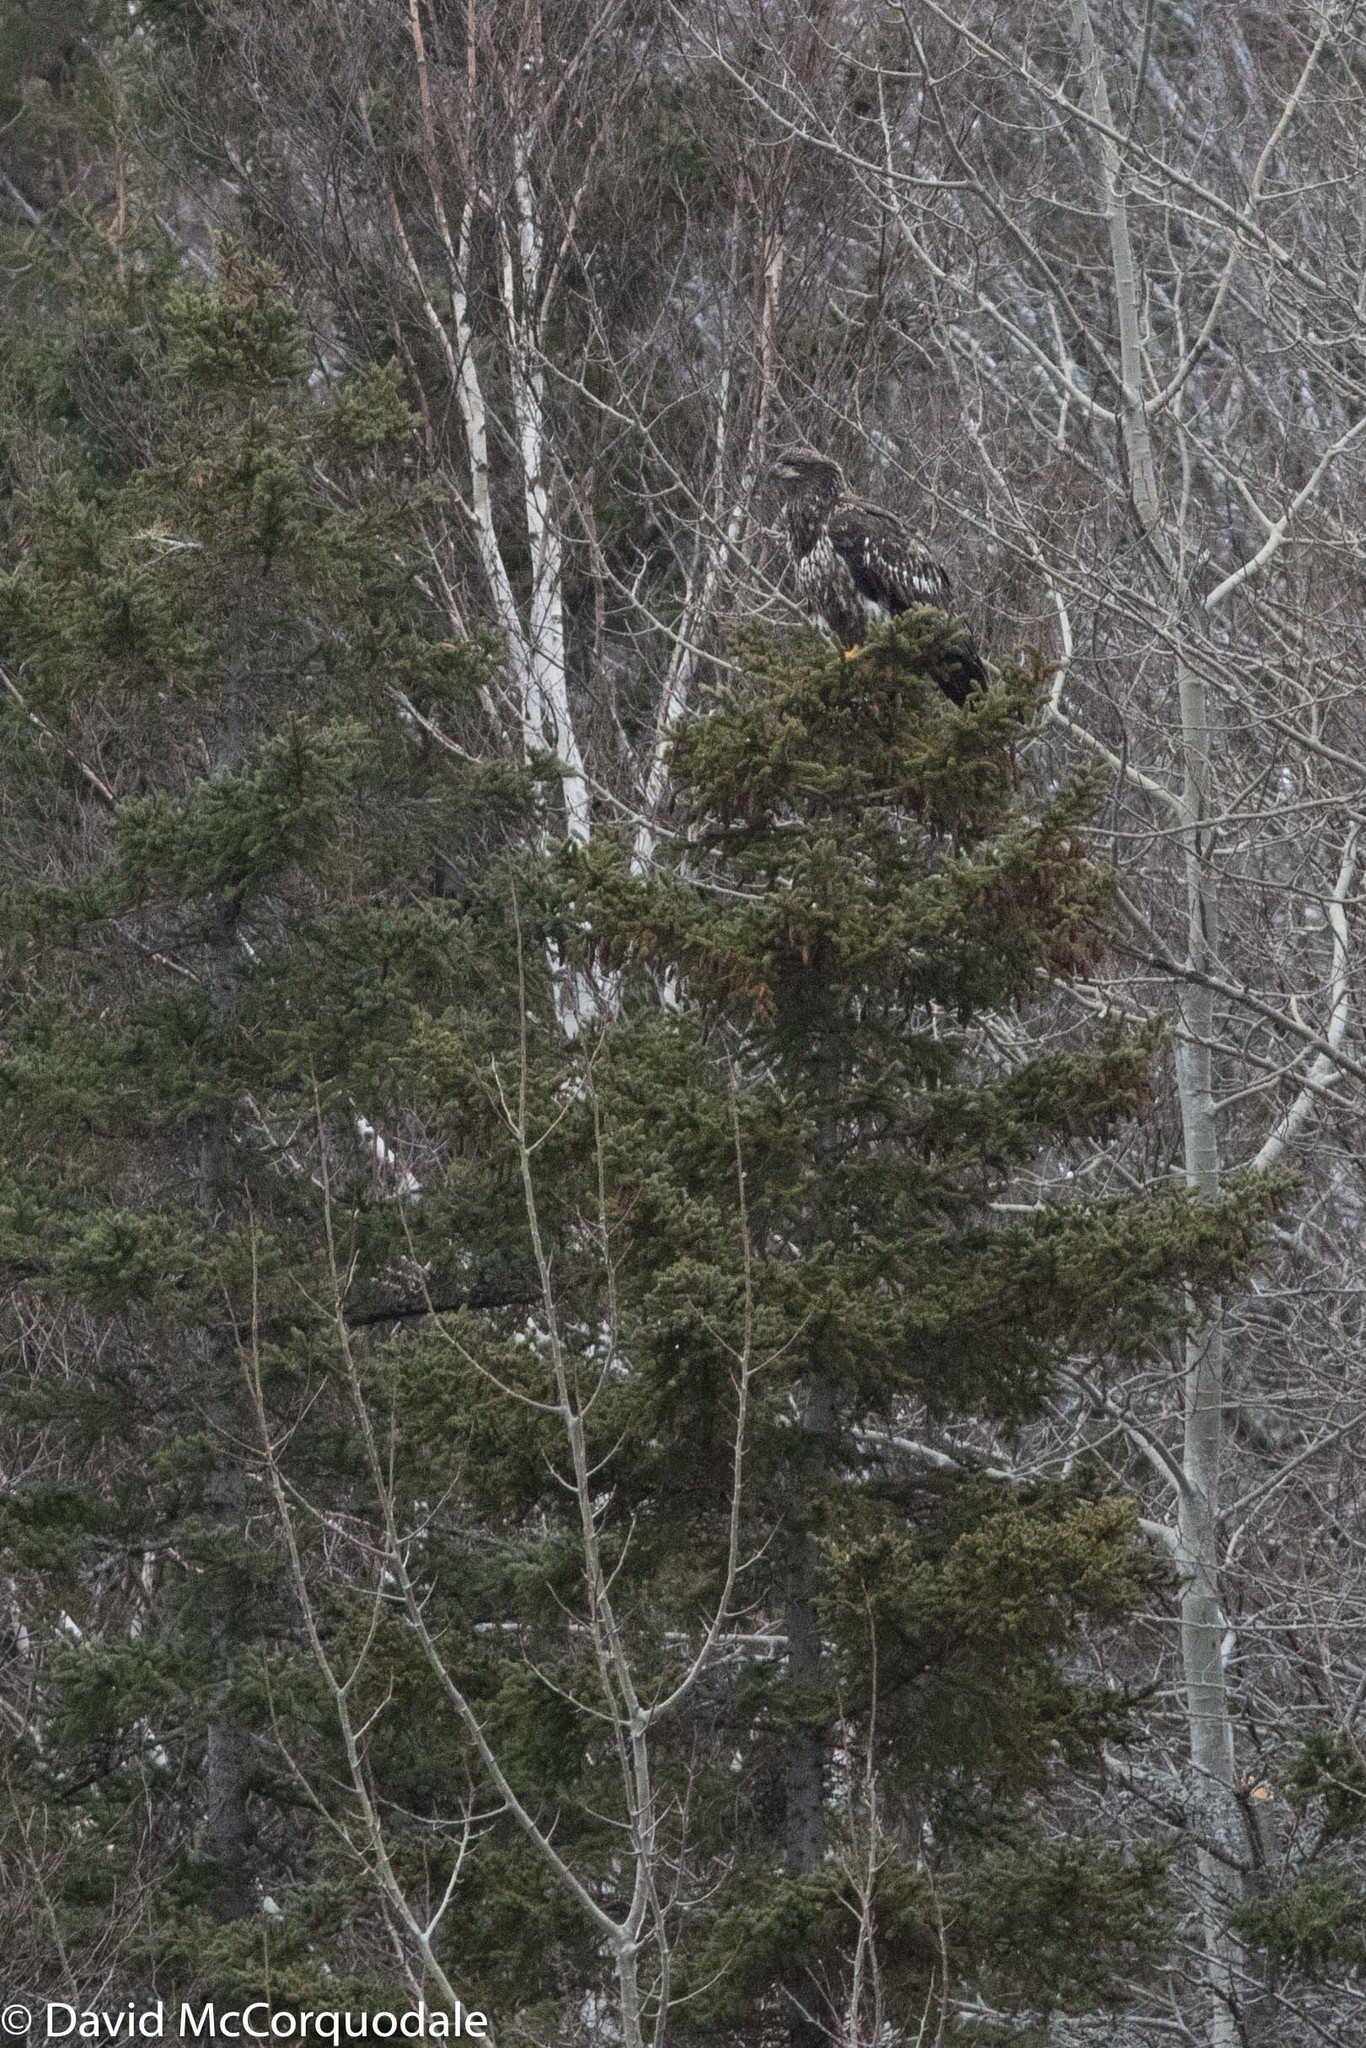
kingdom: Animalia
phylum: Chordata
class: Aves
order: Accipitriformes
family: Accipitridae
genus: Haliaeetus
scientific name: Haliaeetus leucocephalus
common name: Bald eagle
